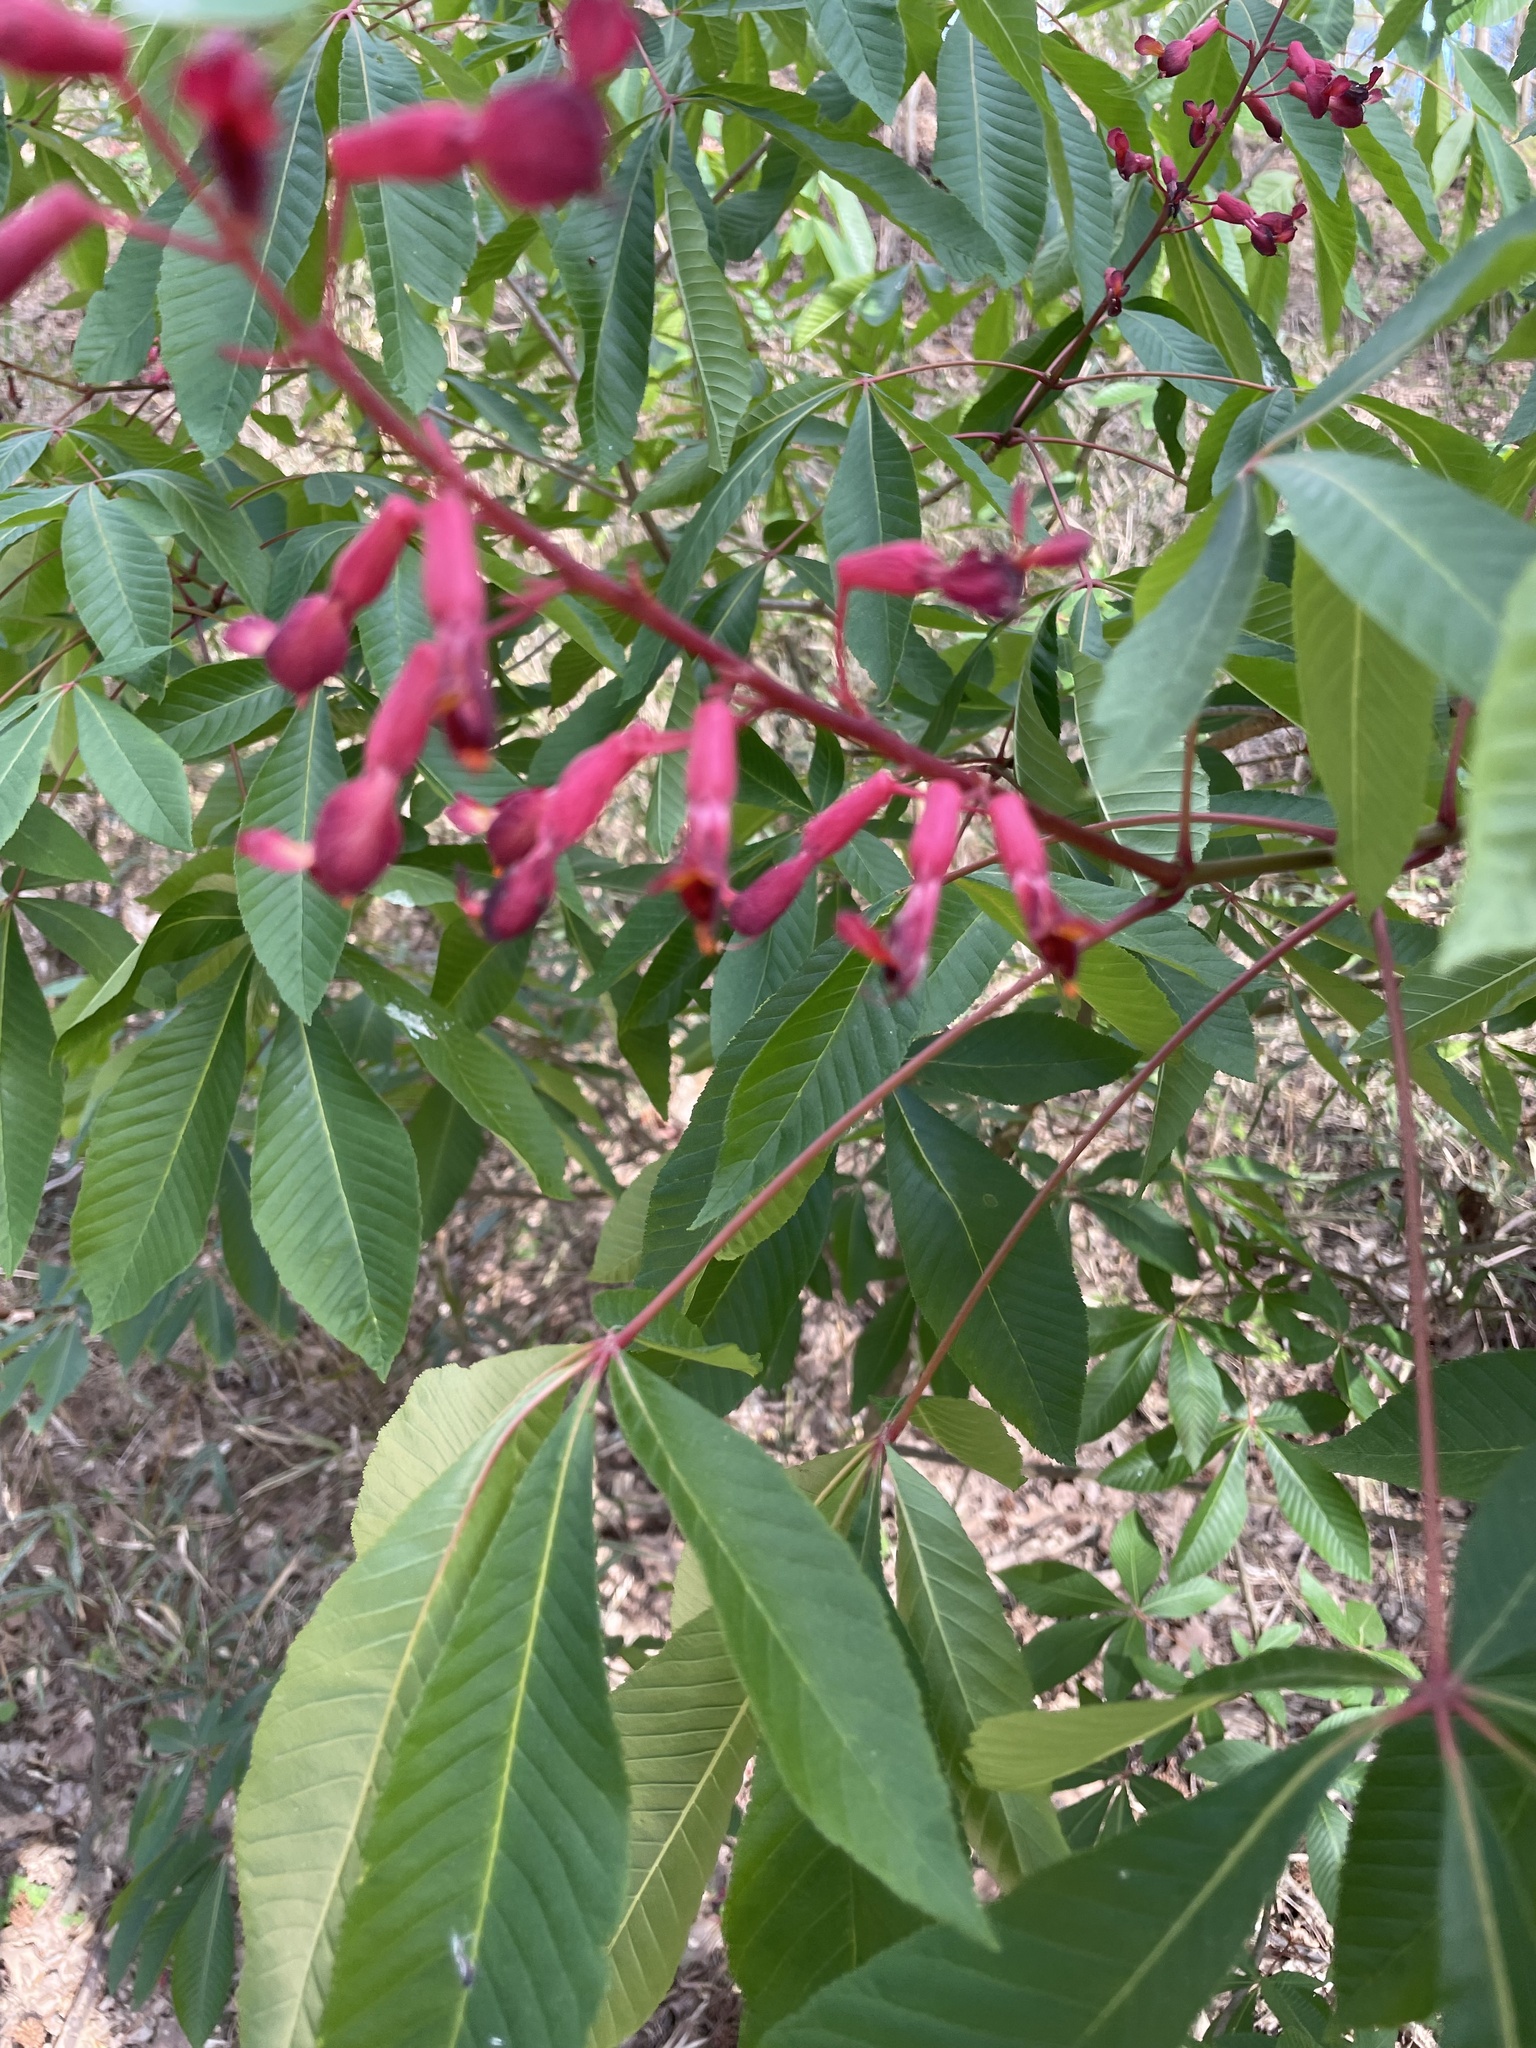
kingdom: Plantae
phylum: Tracheophyta
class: Magnoliopsida
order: Sapindales
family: Sapindaceae
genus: Aesculus
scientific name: Aesculus pavia
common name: Red buckeye
